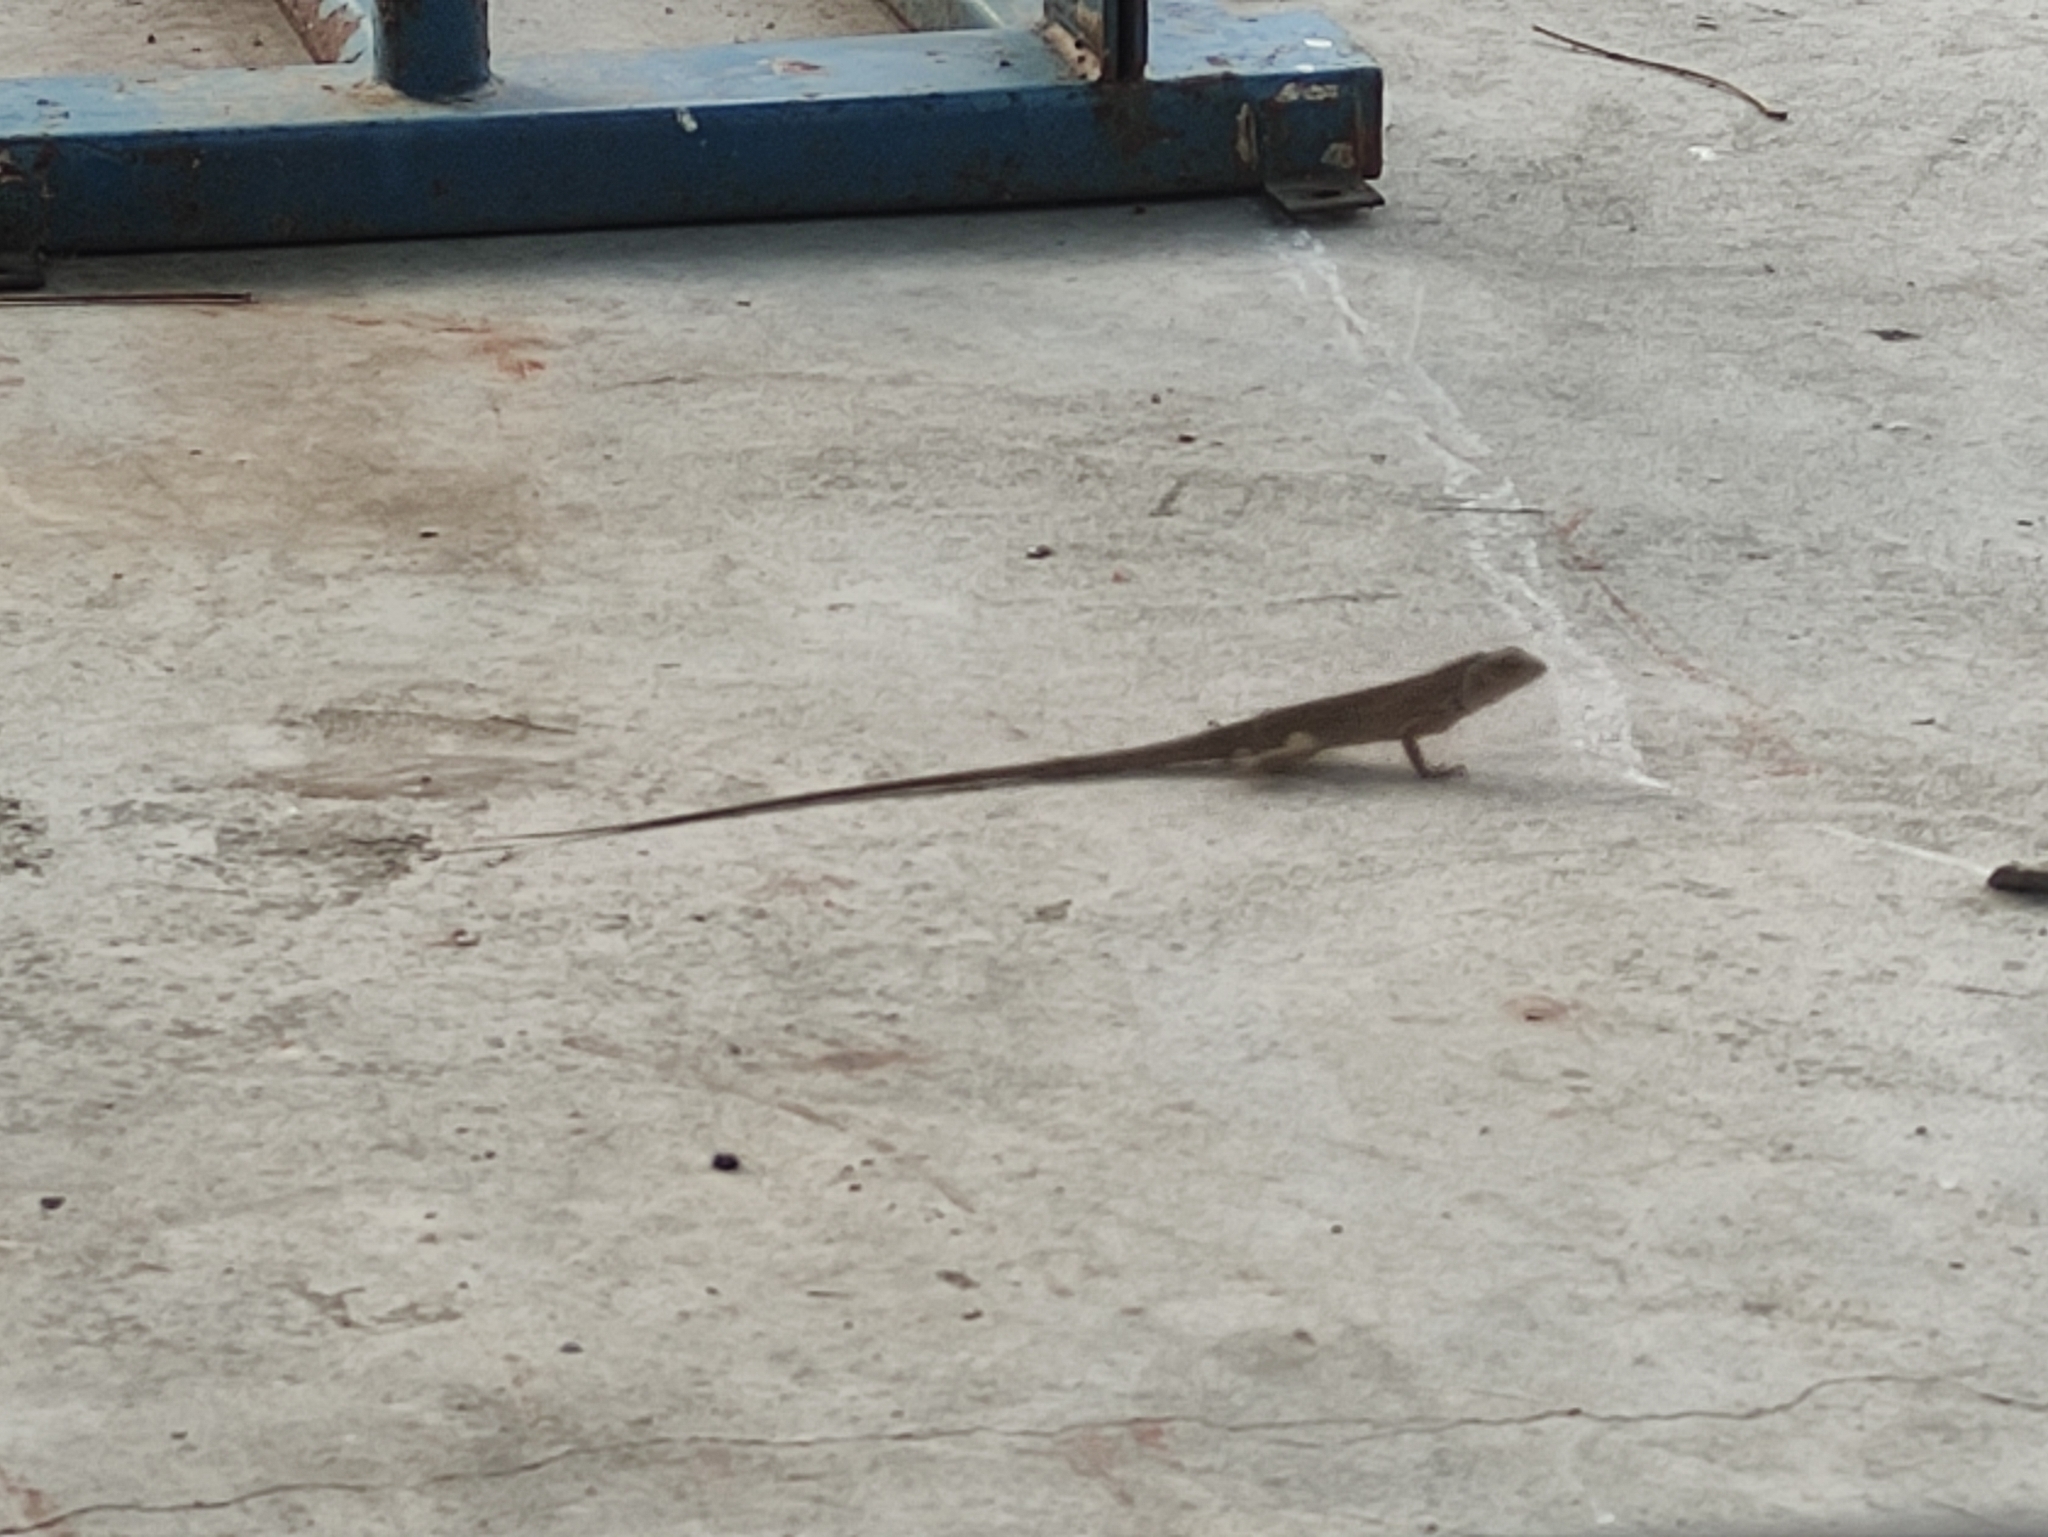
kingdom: Animalia
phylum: Chordata
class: Squamata
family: Agamidae
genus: Calotes
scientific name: Calotes versicolor
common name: Oriental garden lizard
